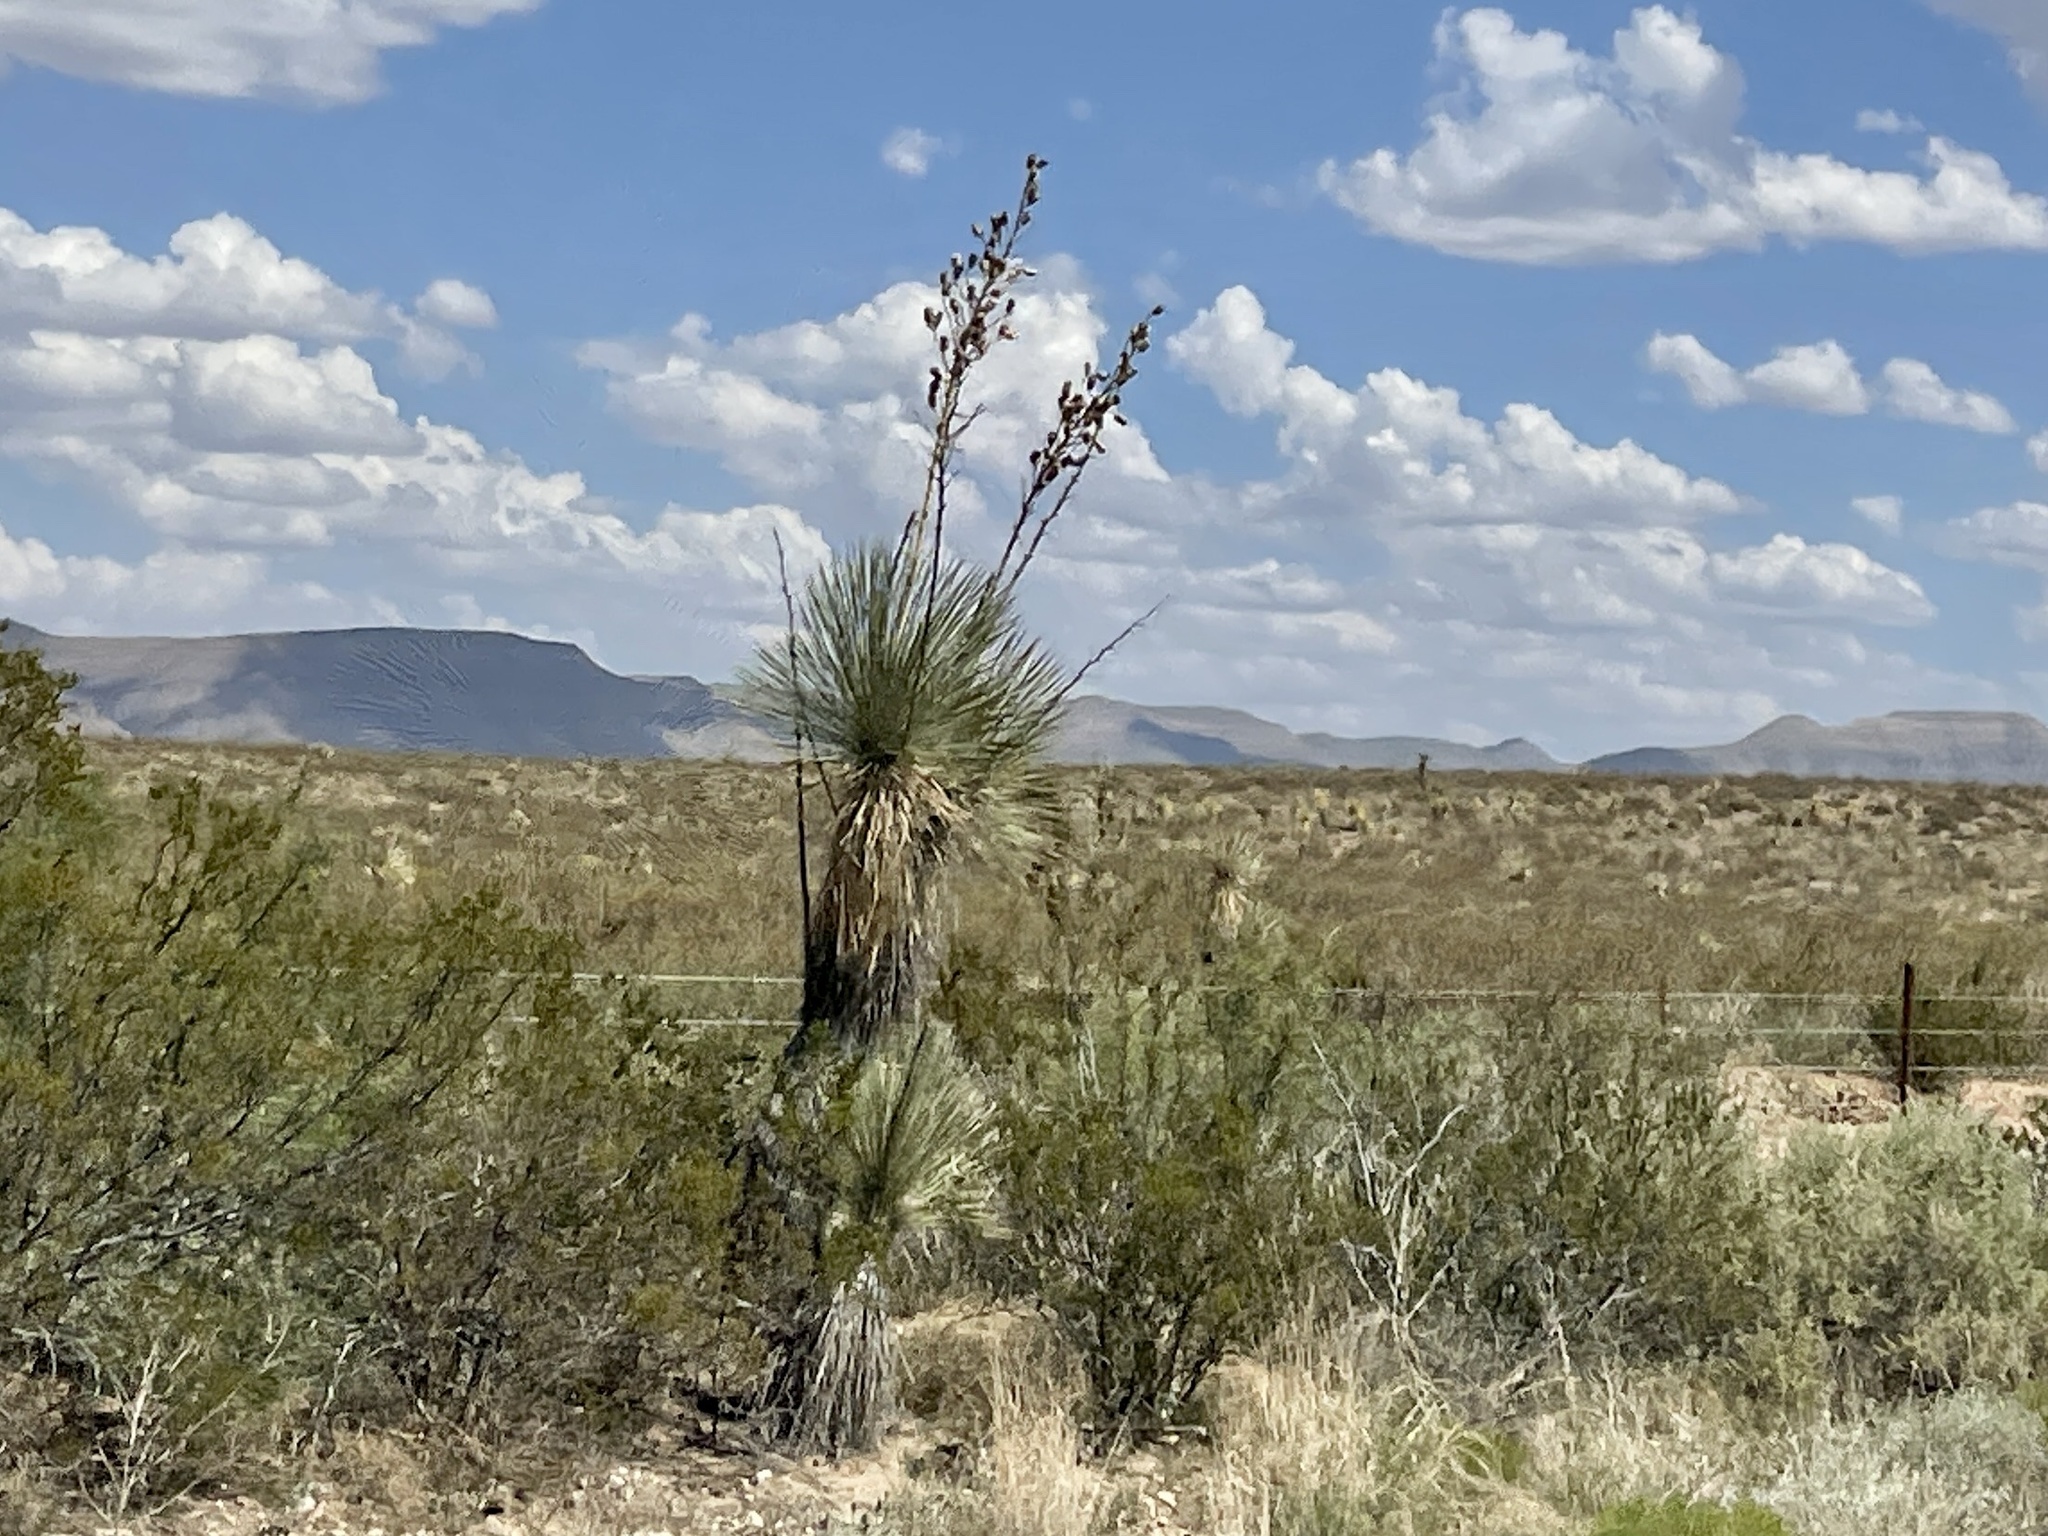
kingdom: Plantae
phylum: Tracheophyta
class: Liliopsida
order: Asparagales
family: Asparagaceae
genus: Yucca
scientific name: Yucca elata
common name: Palmella
